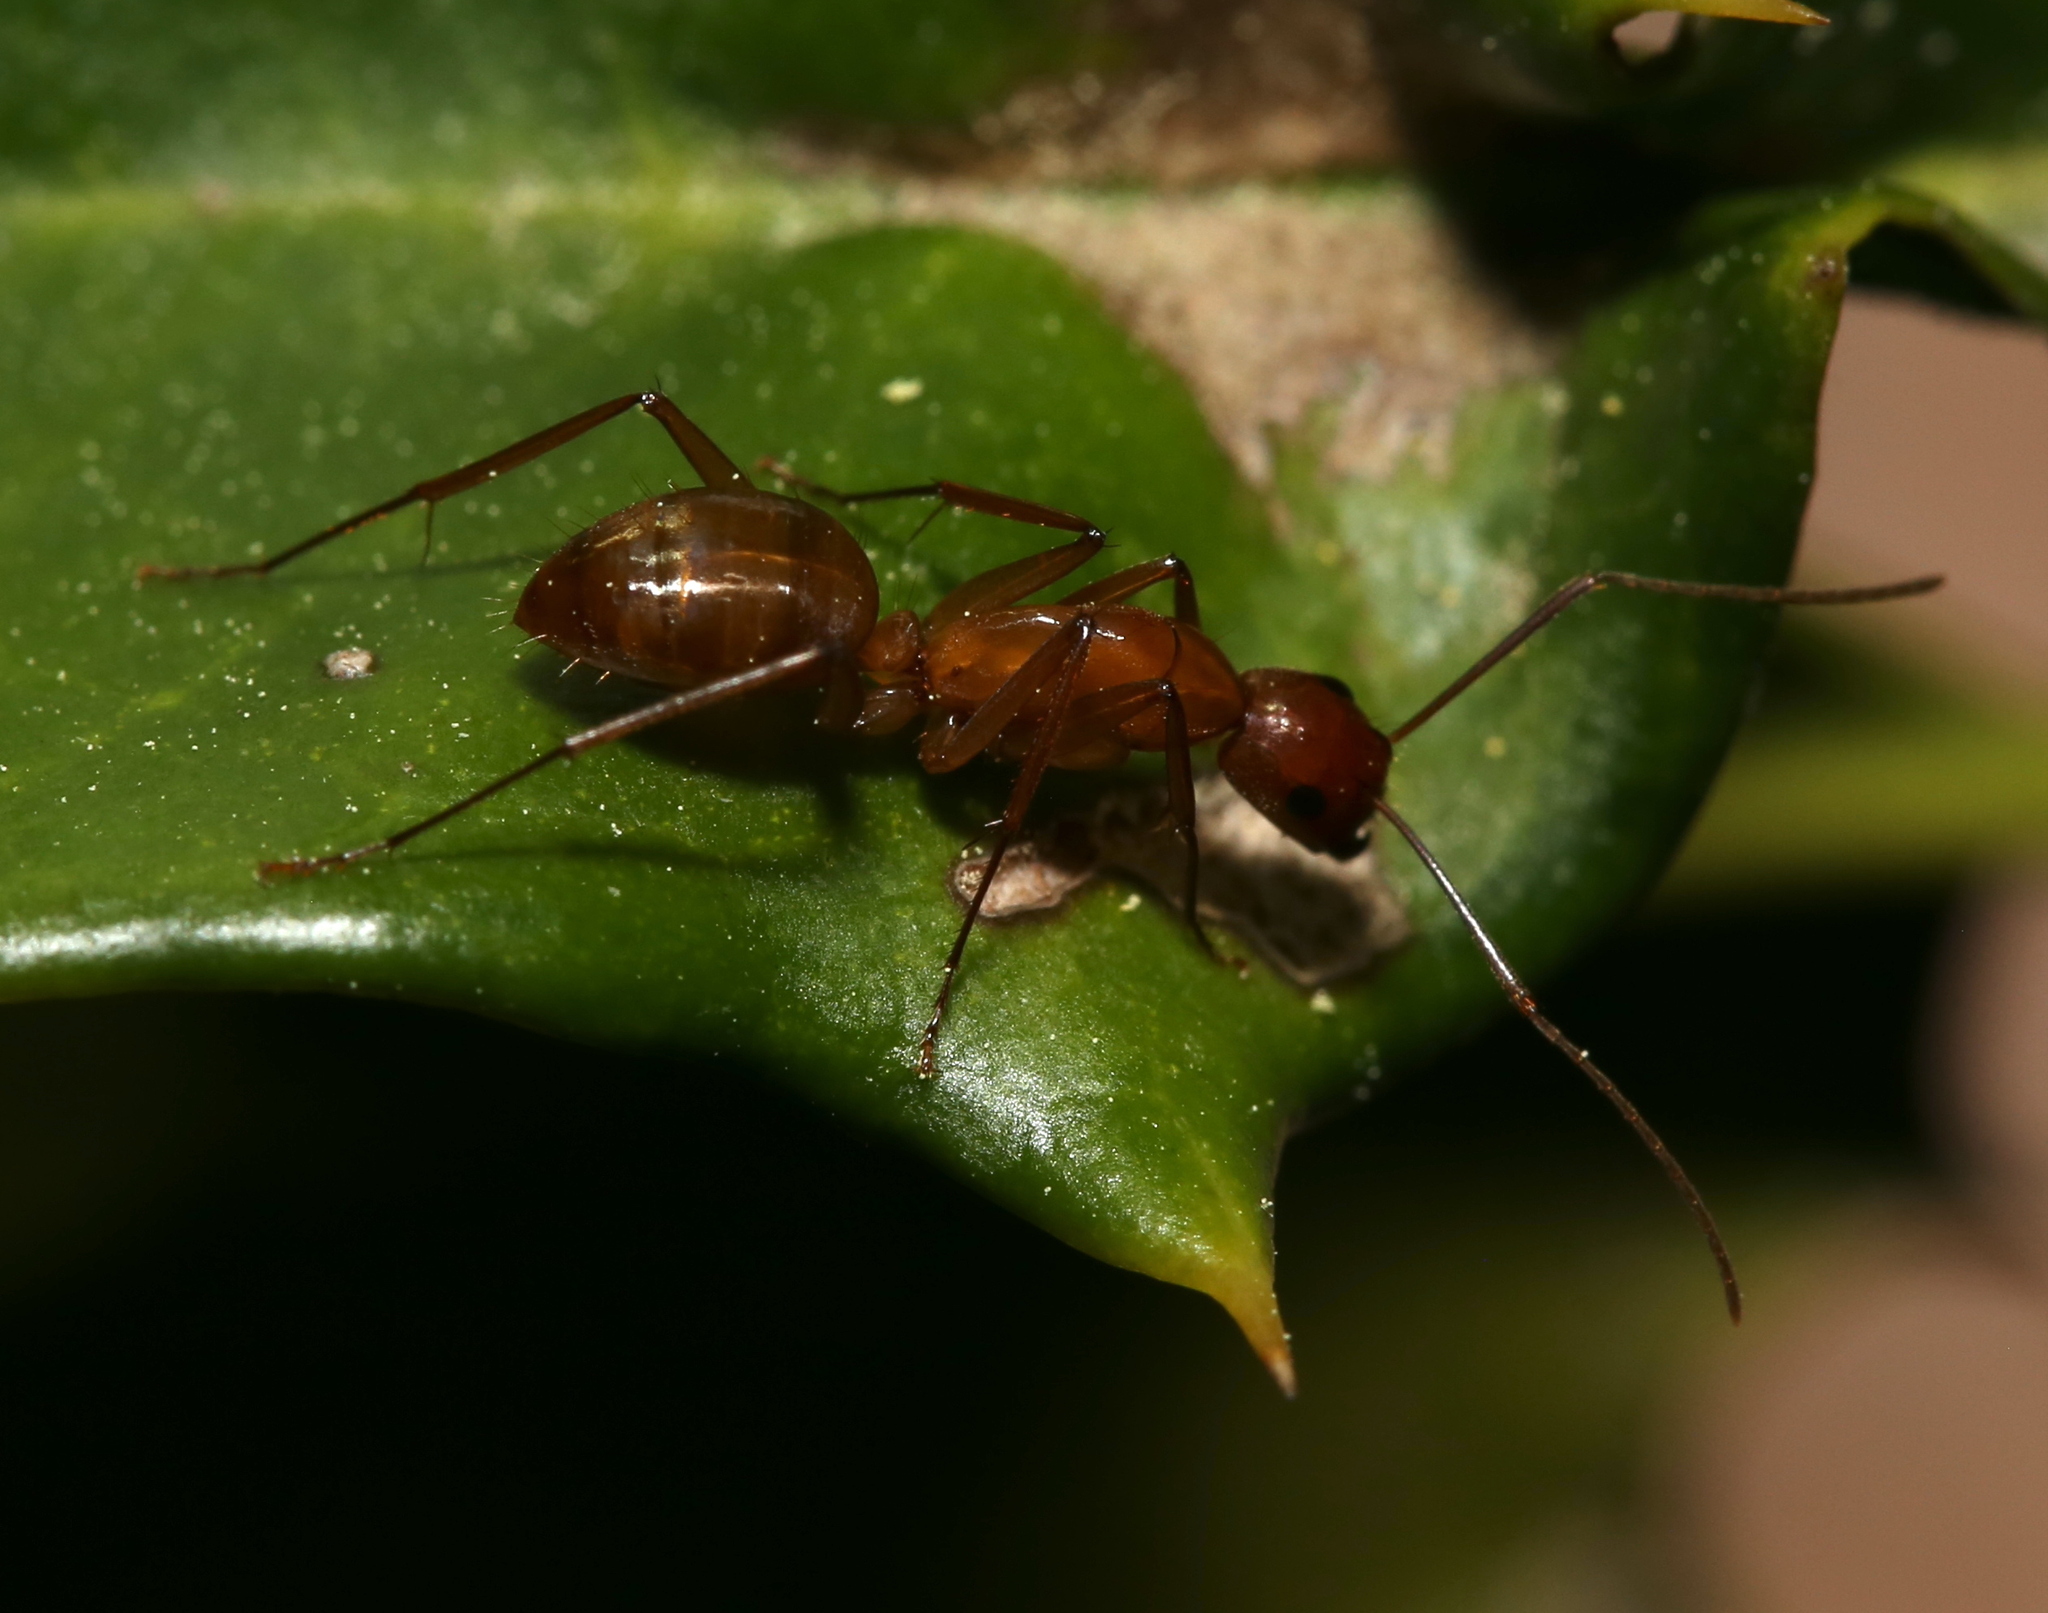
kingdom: Animalia
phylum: Arthropoda
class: Insecta
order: Hymenoptera
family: Formicidae
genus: Camponotus
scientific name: Camponotus castaneus
